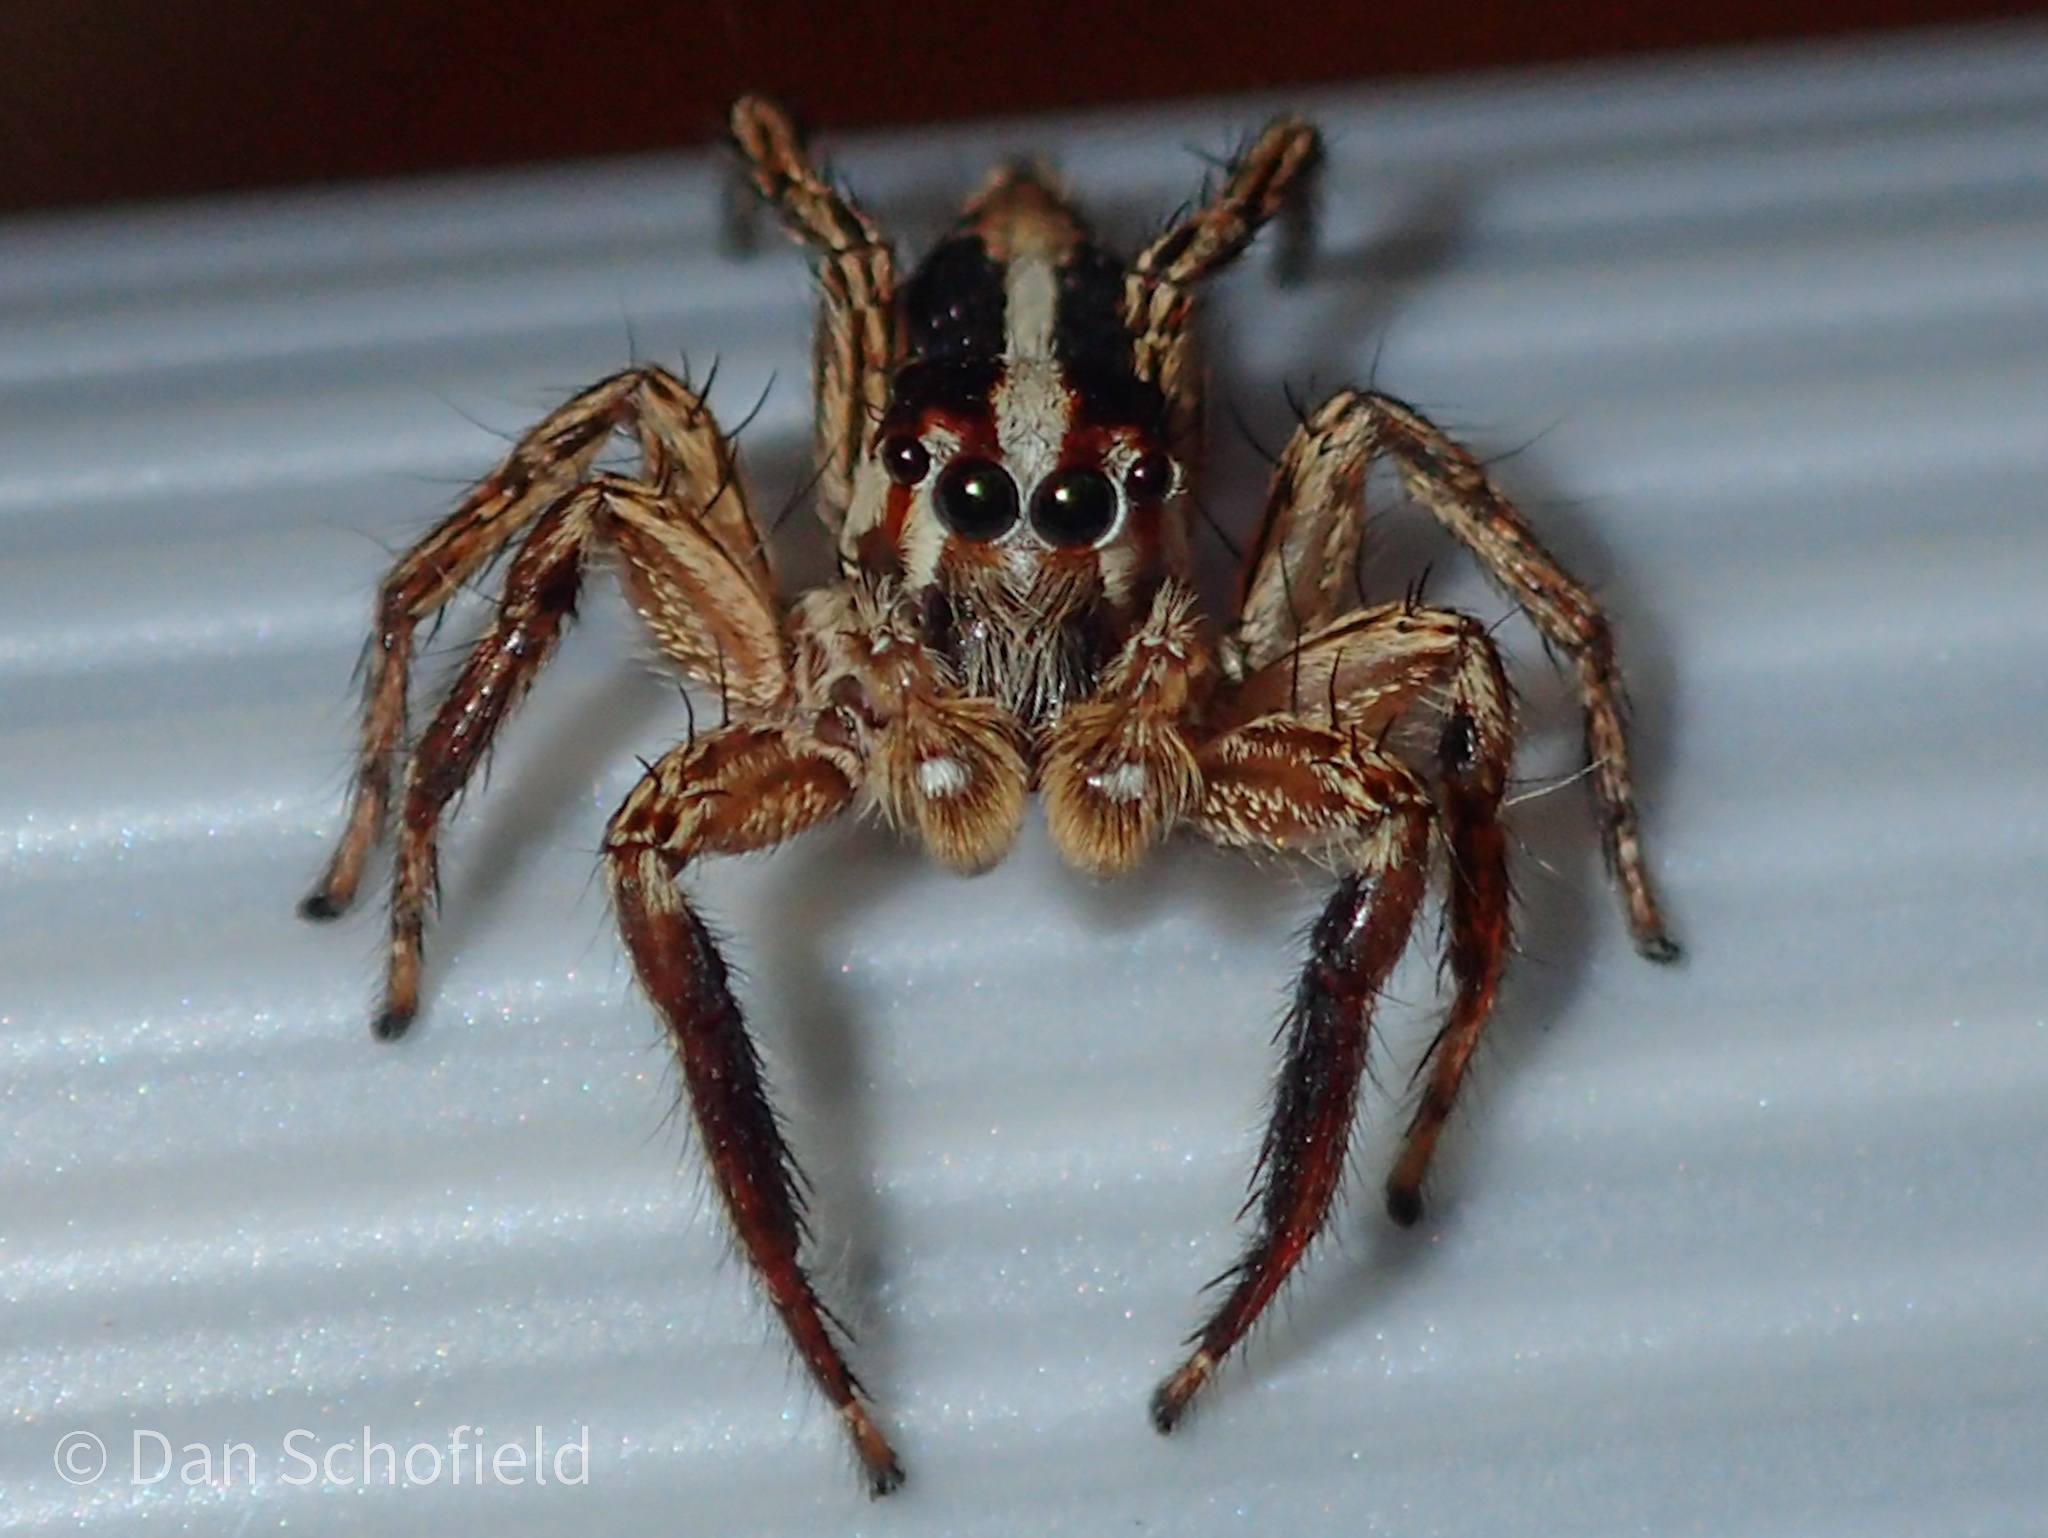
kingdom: Animalia
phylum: Arthropoda
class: Arachnida
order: Araneae
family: Salticidae
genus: Plexippus
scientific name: Plexippus paykulli
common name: Pantropical jumper
